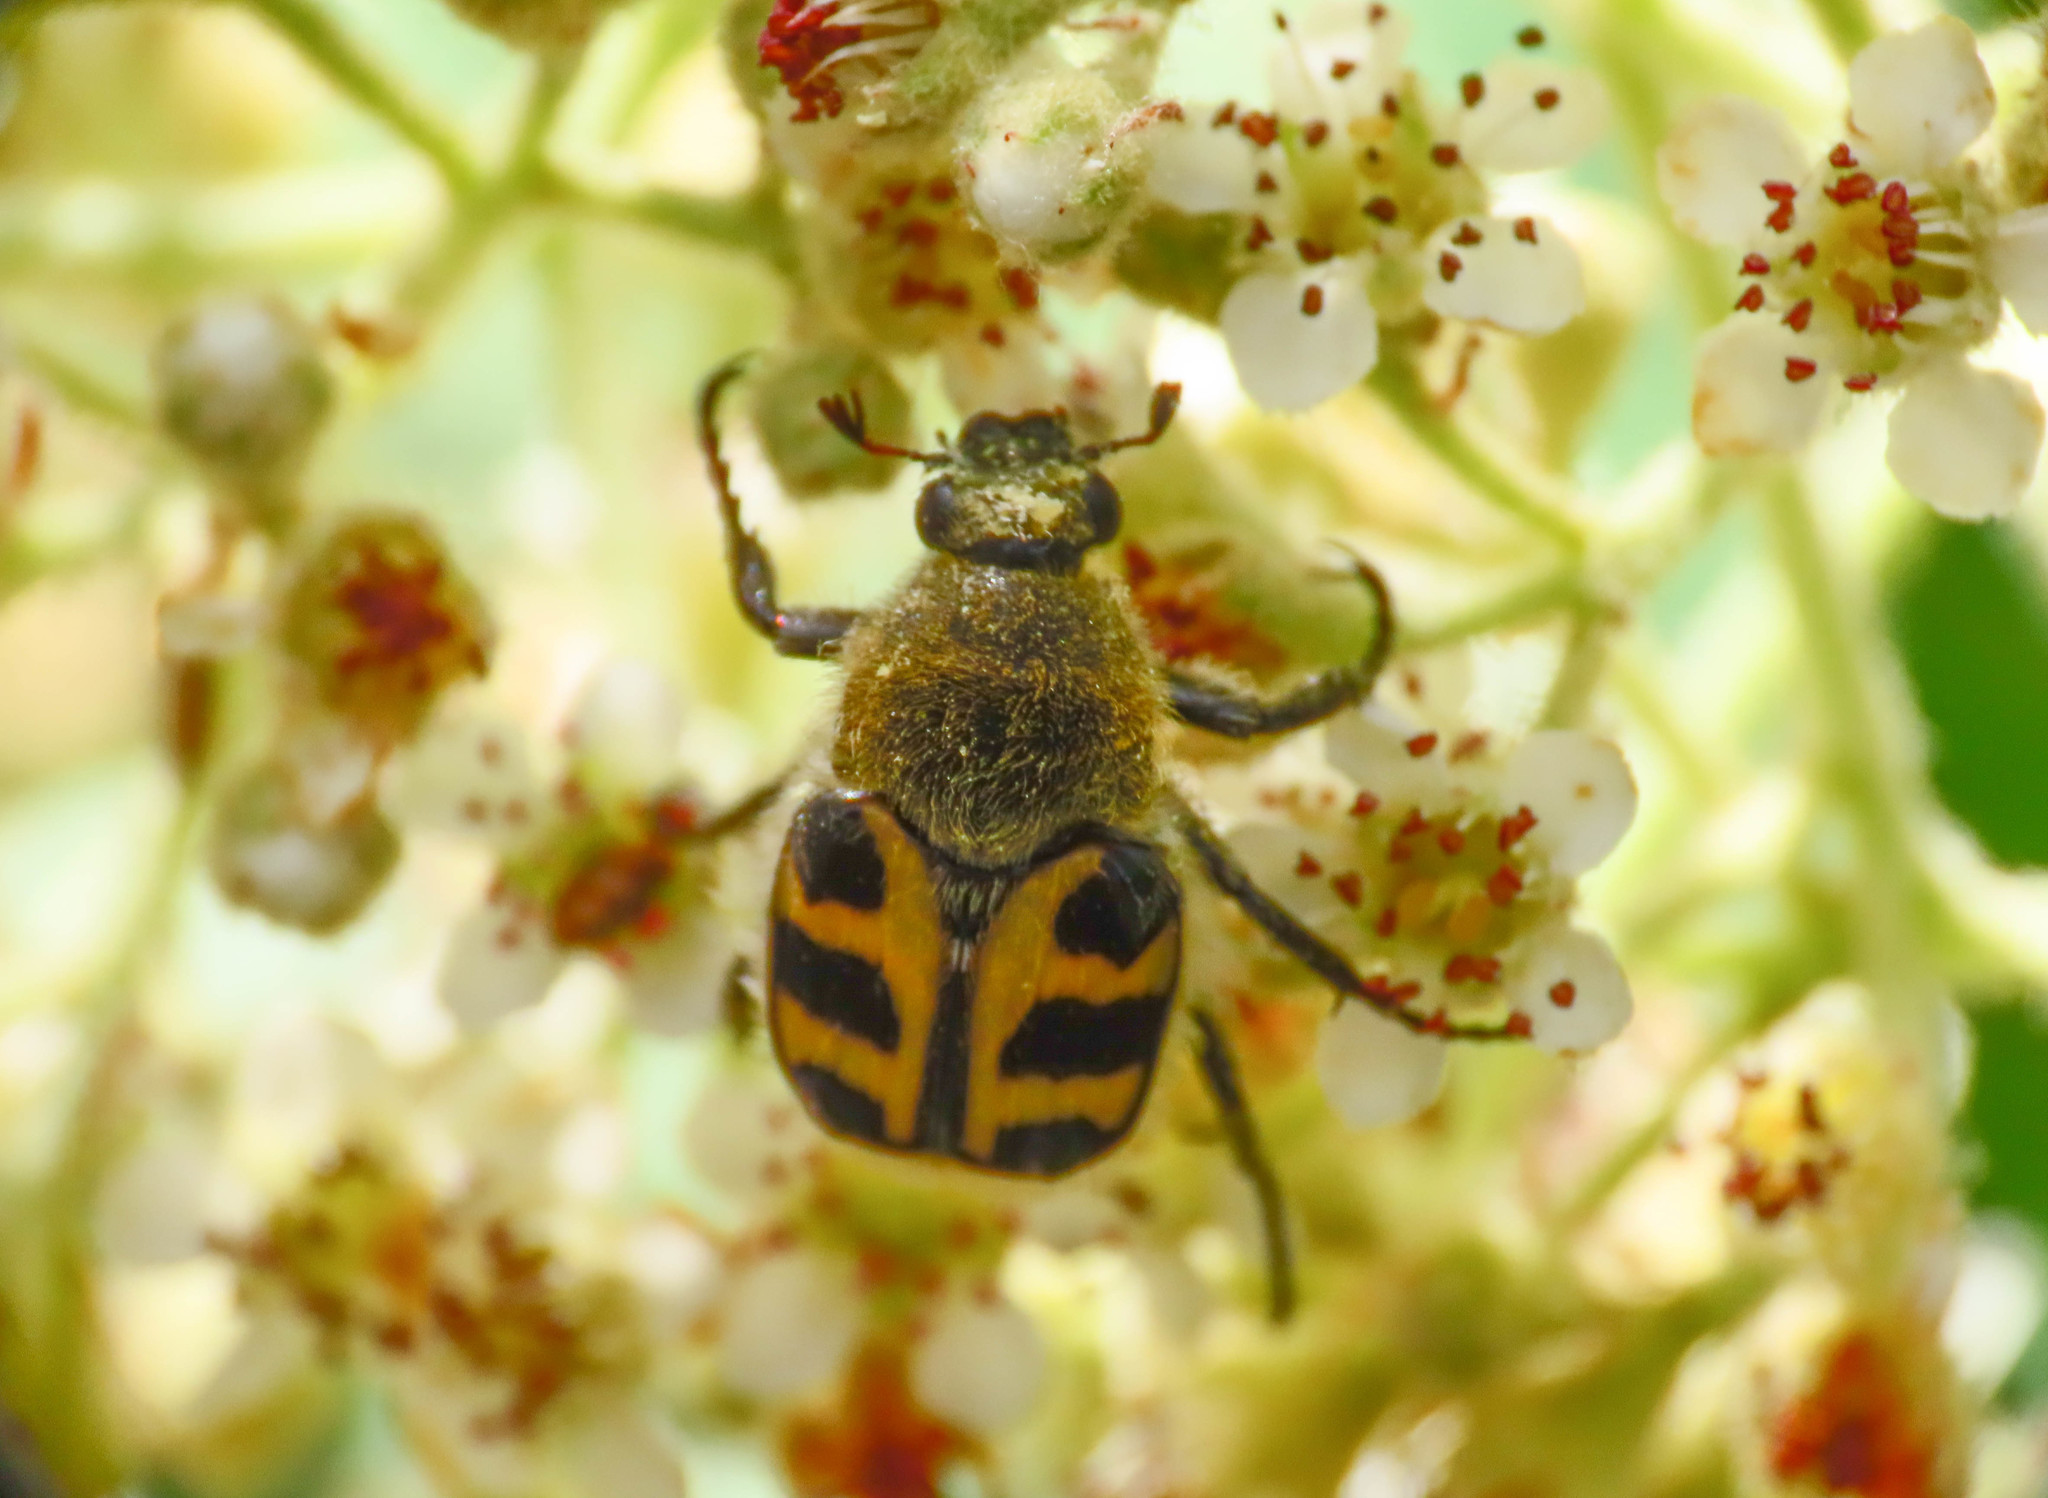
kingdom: Animalia
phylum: Arthropoda
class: Insecta
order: Coleoptera
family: Scarabaeidae
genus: Trichius
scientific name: Trichius gallicus
